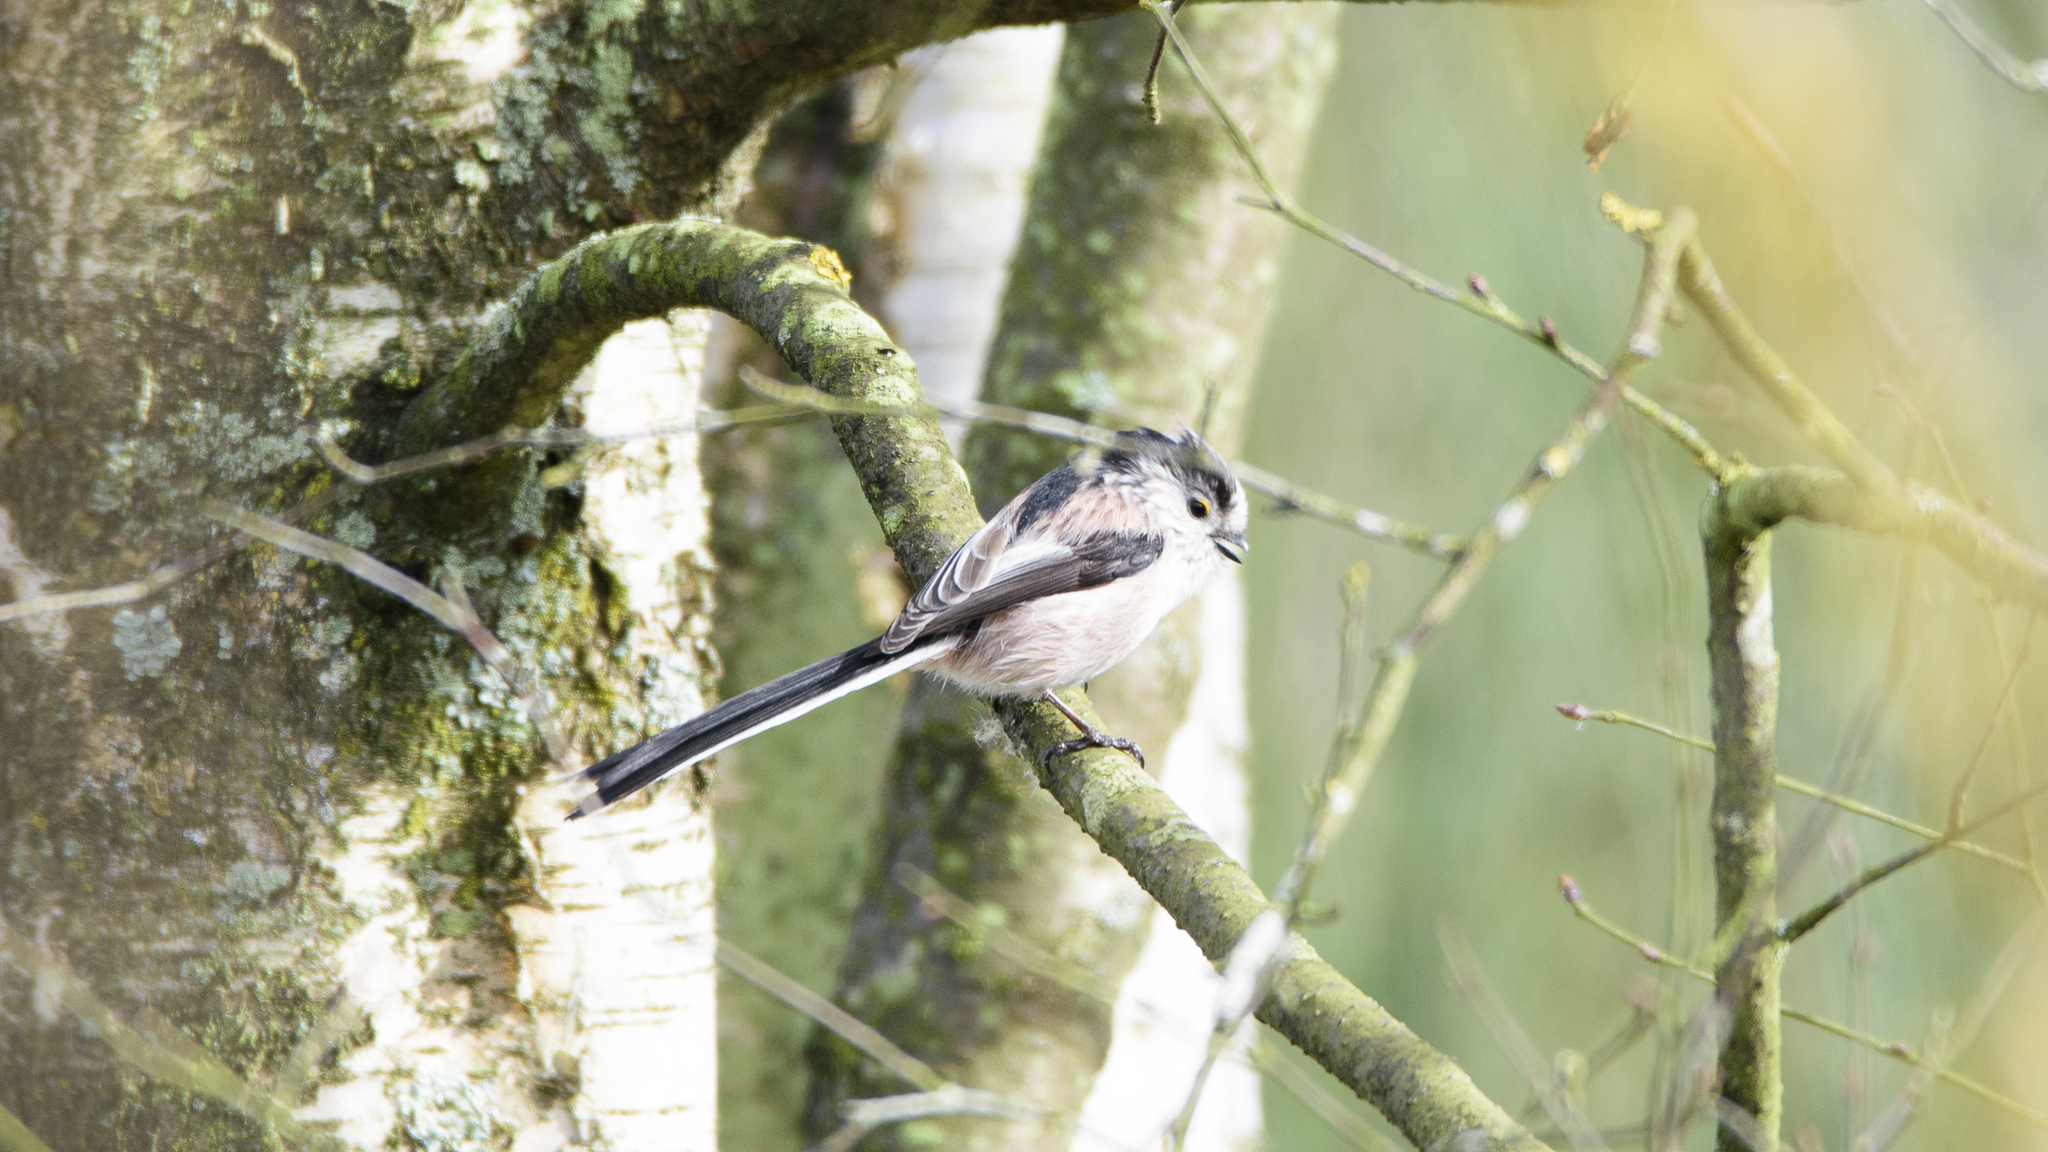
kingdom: Animalia
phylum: Chordata
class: Aves
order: Passeriformes
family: Aegithalidae
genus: Aegithalos
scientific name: Aegithalos caudatus
